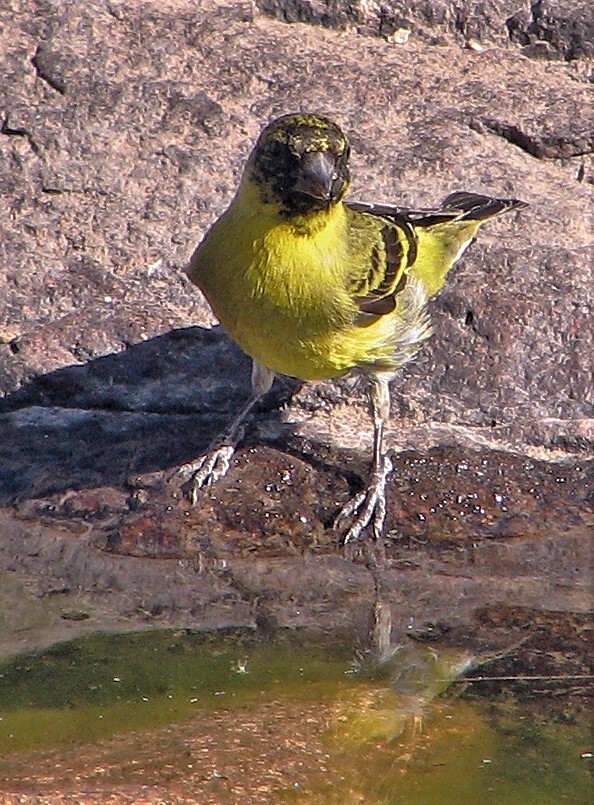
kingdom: Animalia
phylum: Chordata
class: Aves
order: Passeriformes
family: Fringillidae
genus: Spinus
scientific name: Spinus magellanicus
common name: Hooded siskin
